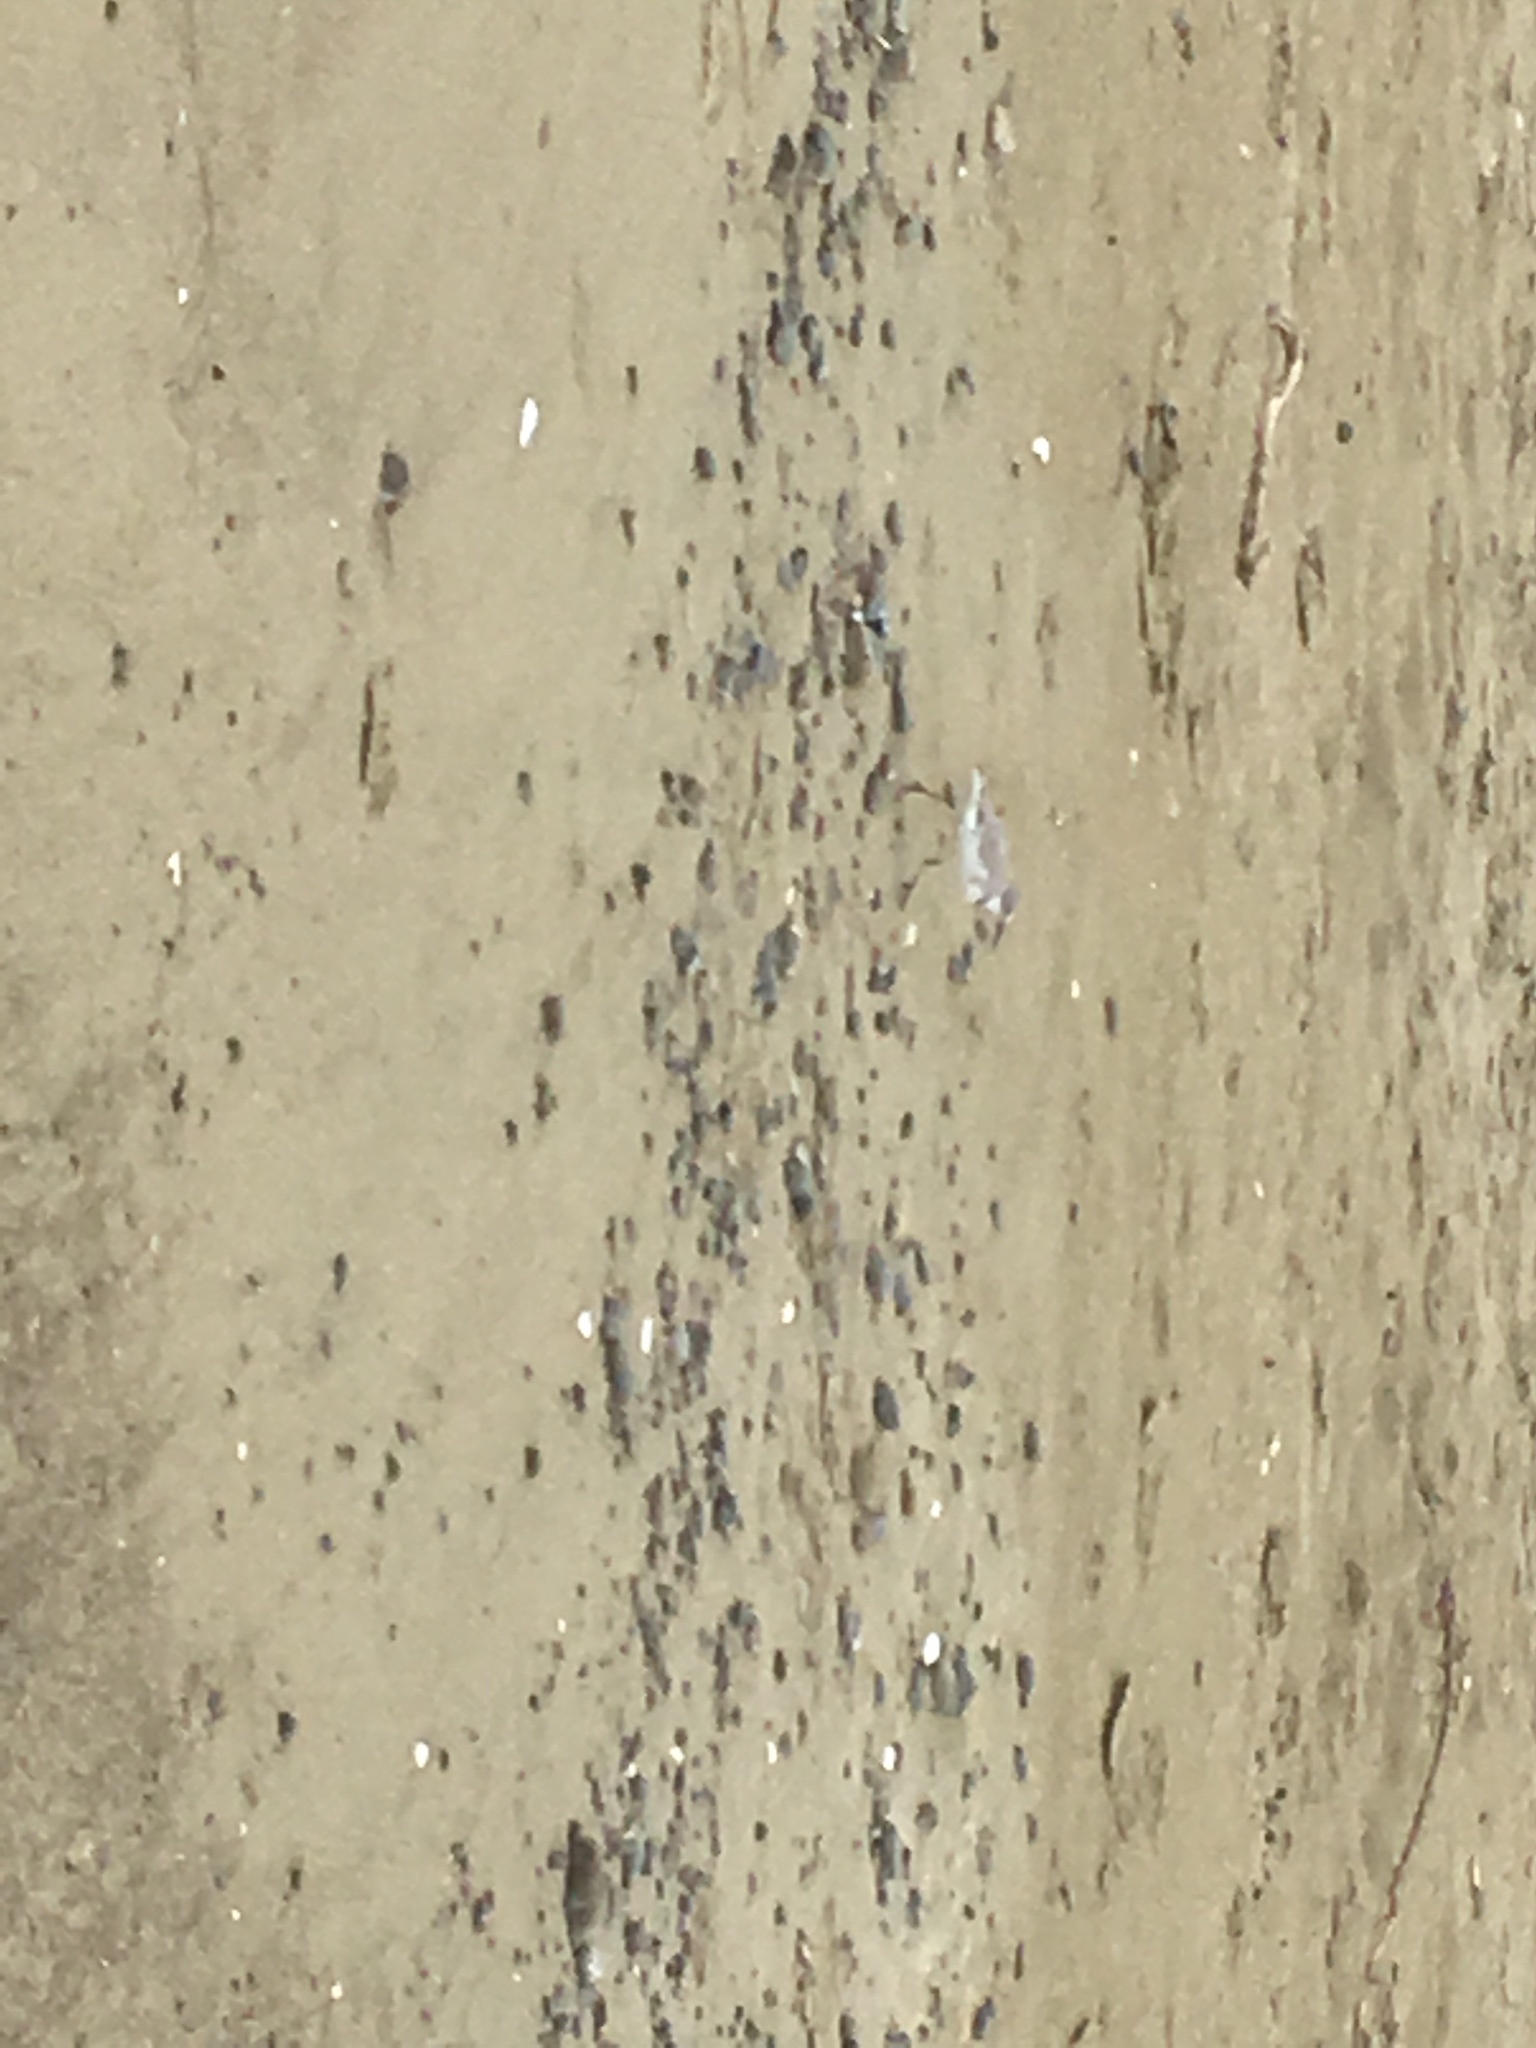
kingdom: Animalia
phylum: Chordata
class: Aves
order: Charadriiformes
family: Charadriidae
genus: Anarhynchus
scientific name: Anarhynchus frontalis
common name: Wrybill
